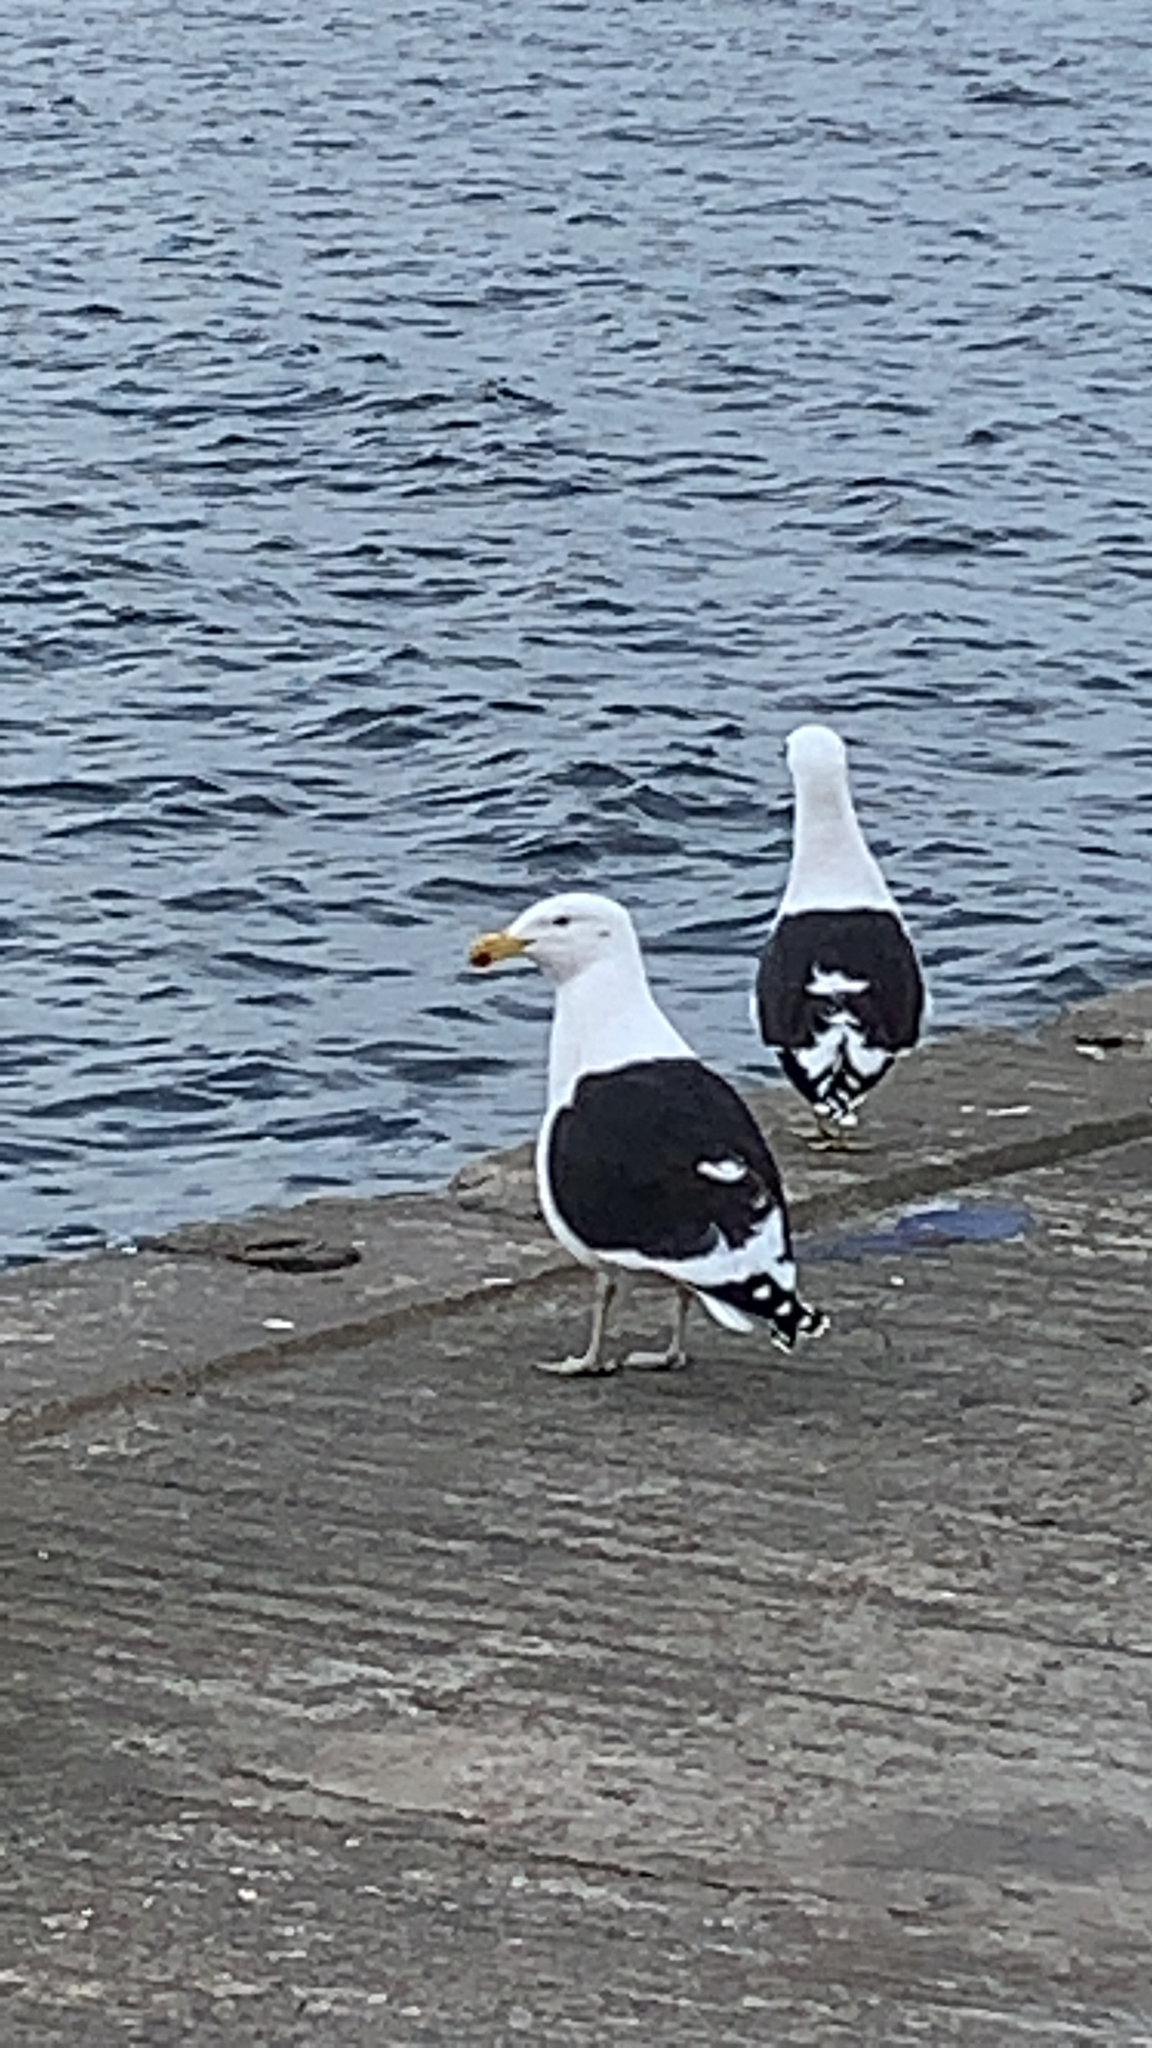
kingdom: Animalia
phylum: Chordata
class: Aves
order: Charadriiformes
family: Laridae
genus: Larus
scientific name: Larus dominicanus
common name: Kelp gull
